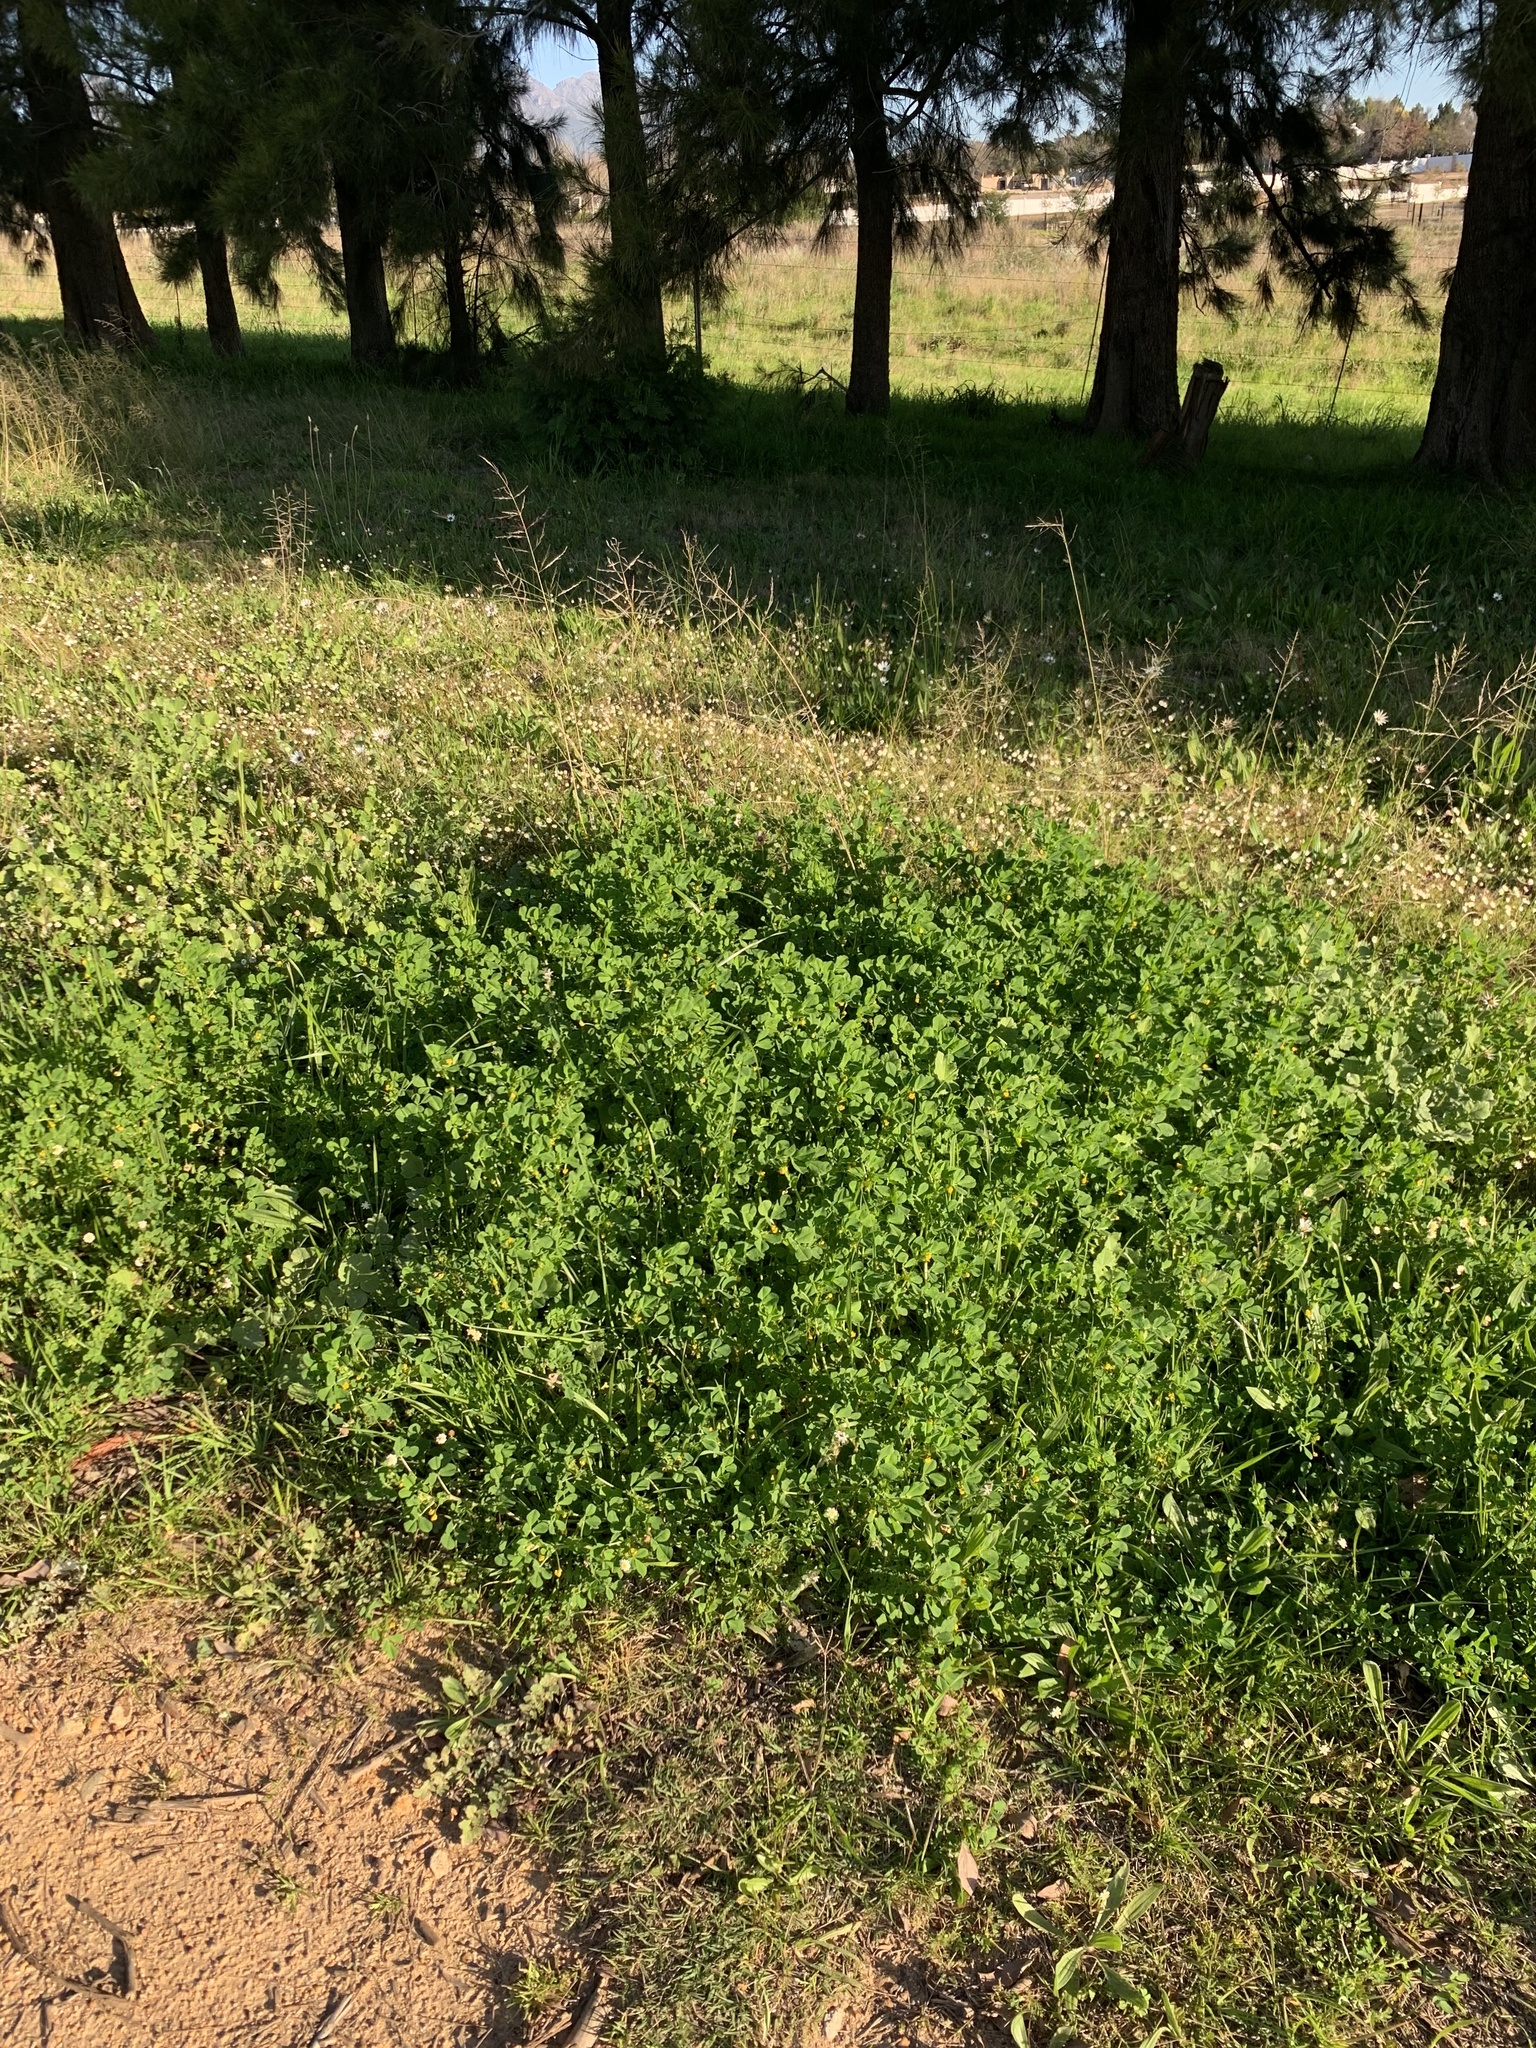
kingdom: Plantae
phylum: Tracheophyta
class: Magnoliopsida
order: Fabales
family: Fabaceae
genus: Medicago
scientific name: Medicago polymorpha
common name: Burclover
